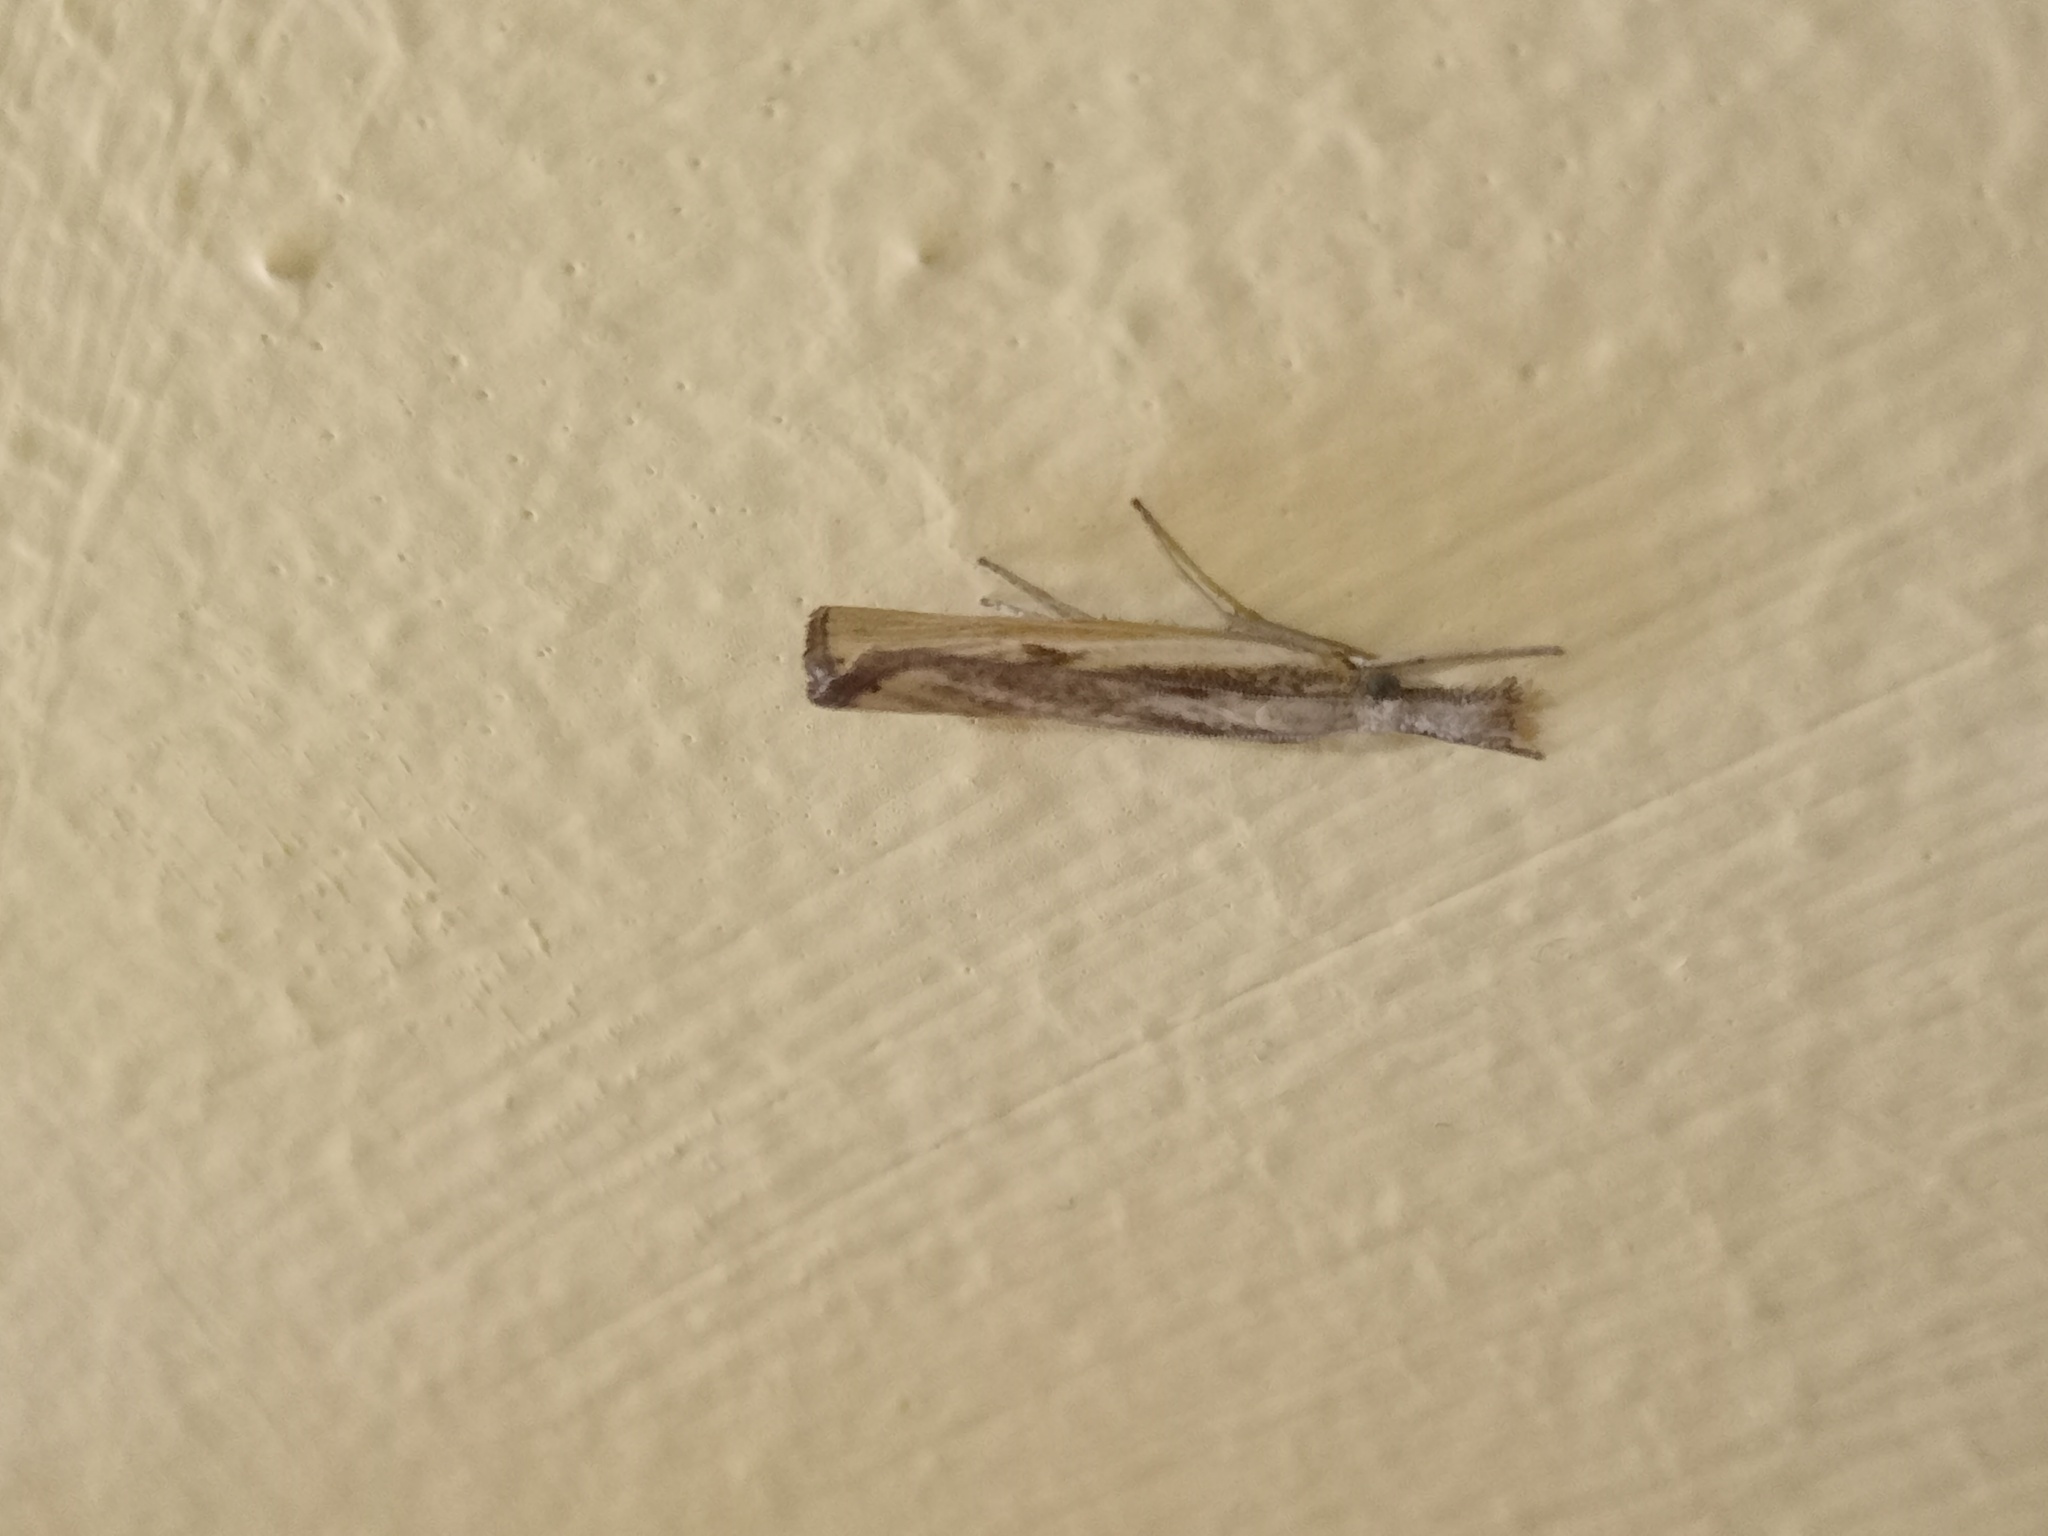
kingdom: Animalia
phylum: Arthropoda
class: Insecta
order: Lepidoptera
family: Crambidae
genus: Agriphila
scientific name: Agriphila inquinatella
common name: Barred grass-veneer
